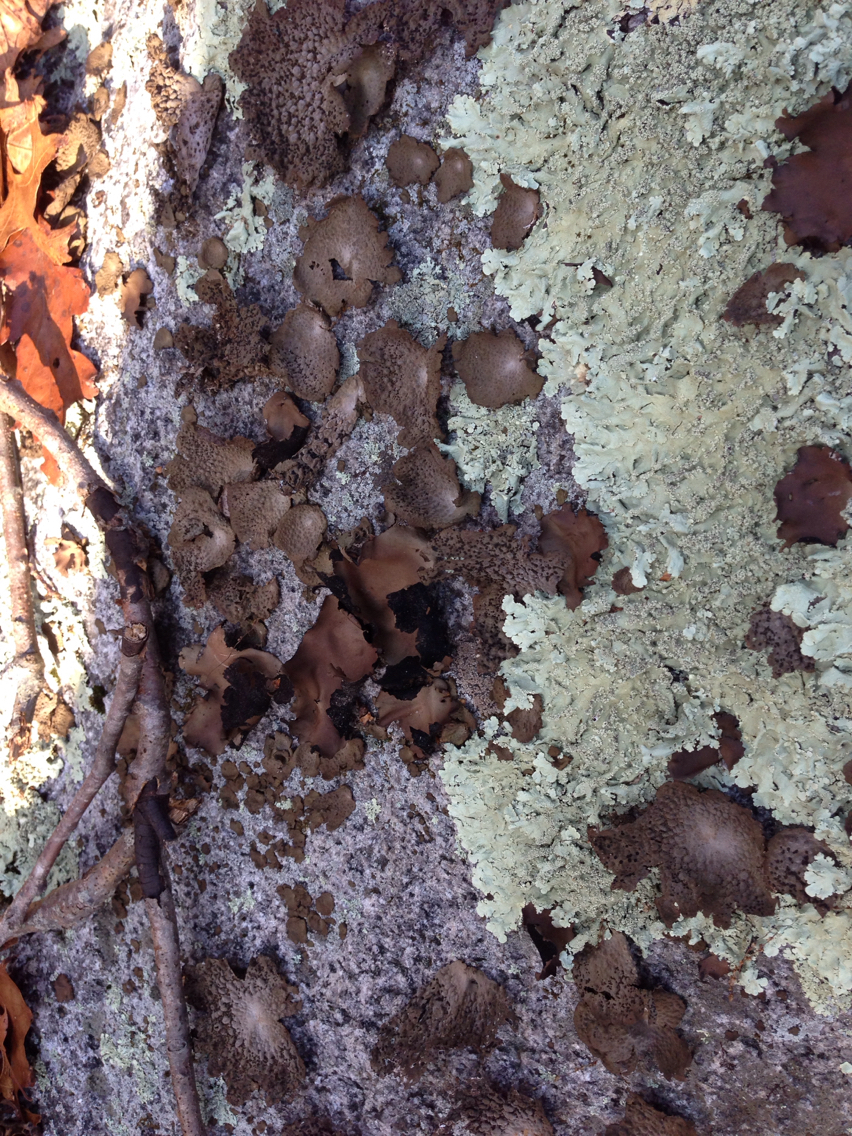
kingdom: Fungi
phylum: Ascomycota
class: Lecanoromycetes
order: Umbilicariales
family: Umbilicariaceae
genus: Lasallia
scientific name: Lasallia papulosa
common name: Common toadskin lichen
